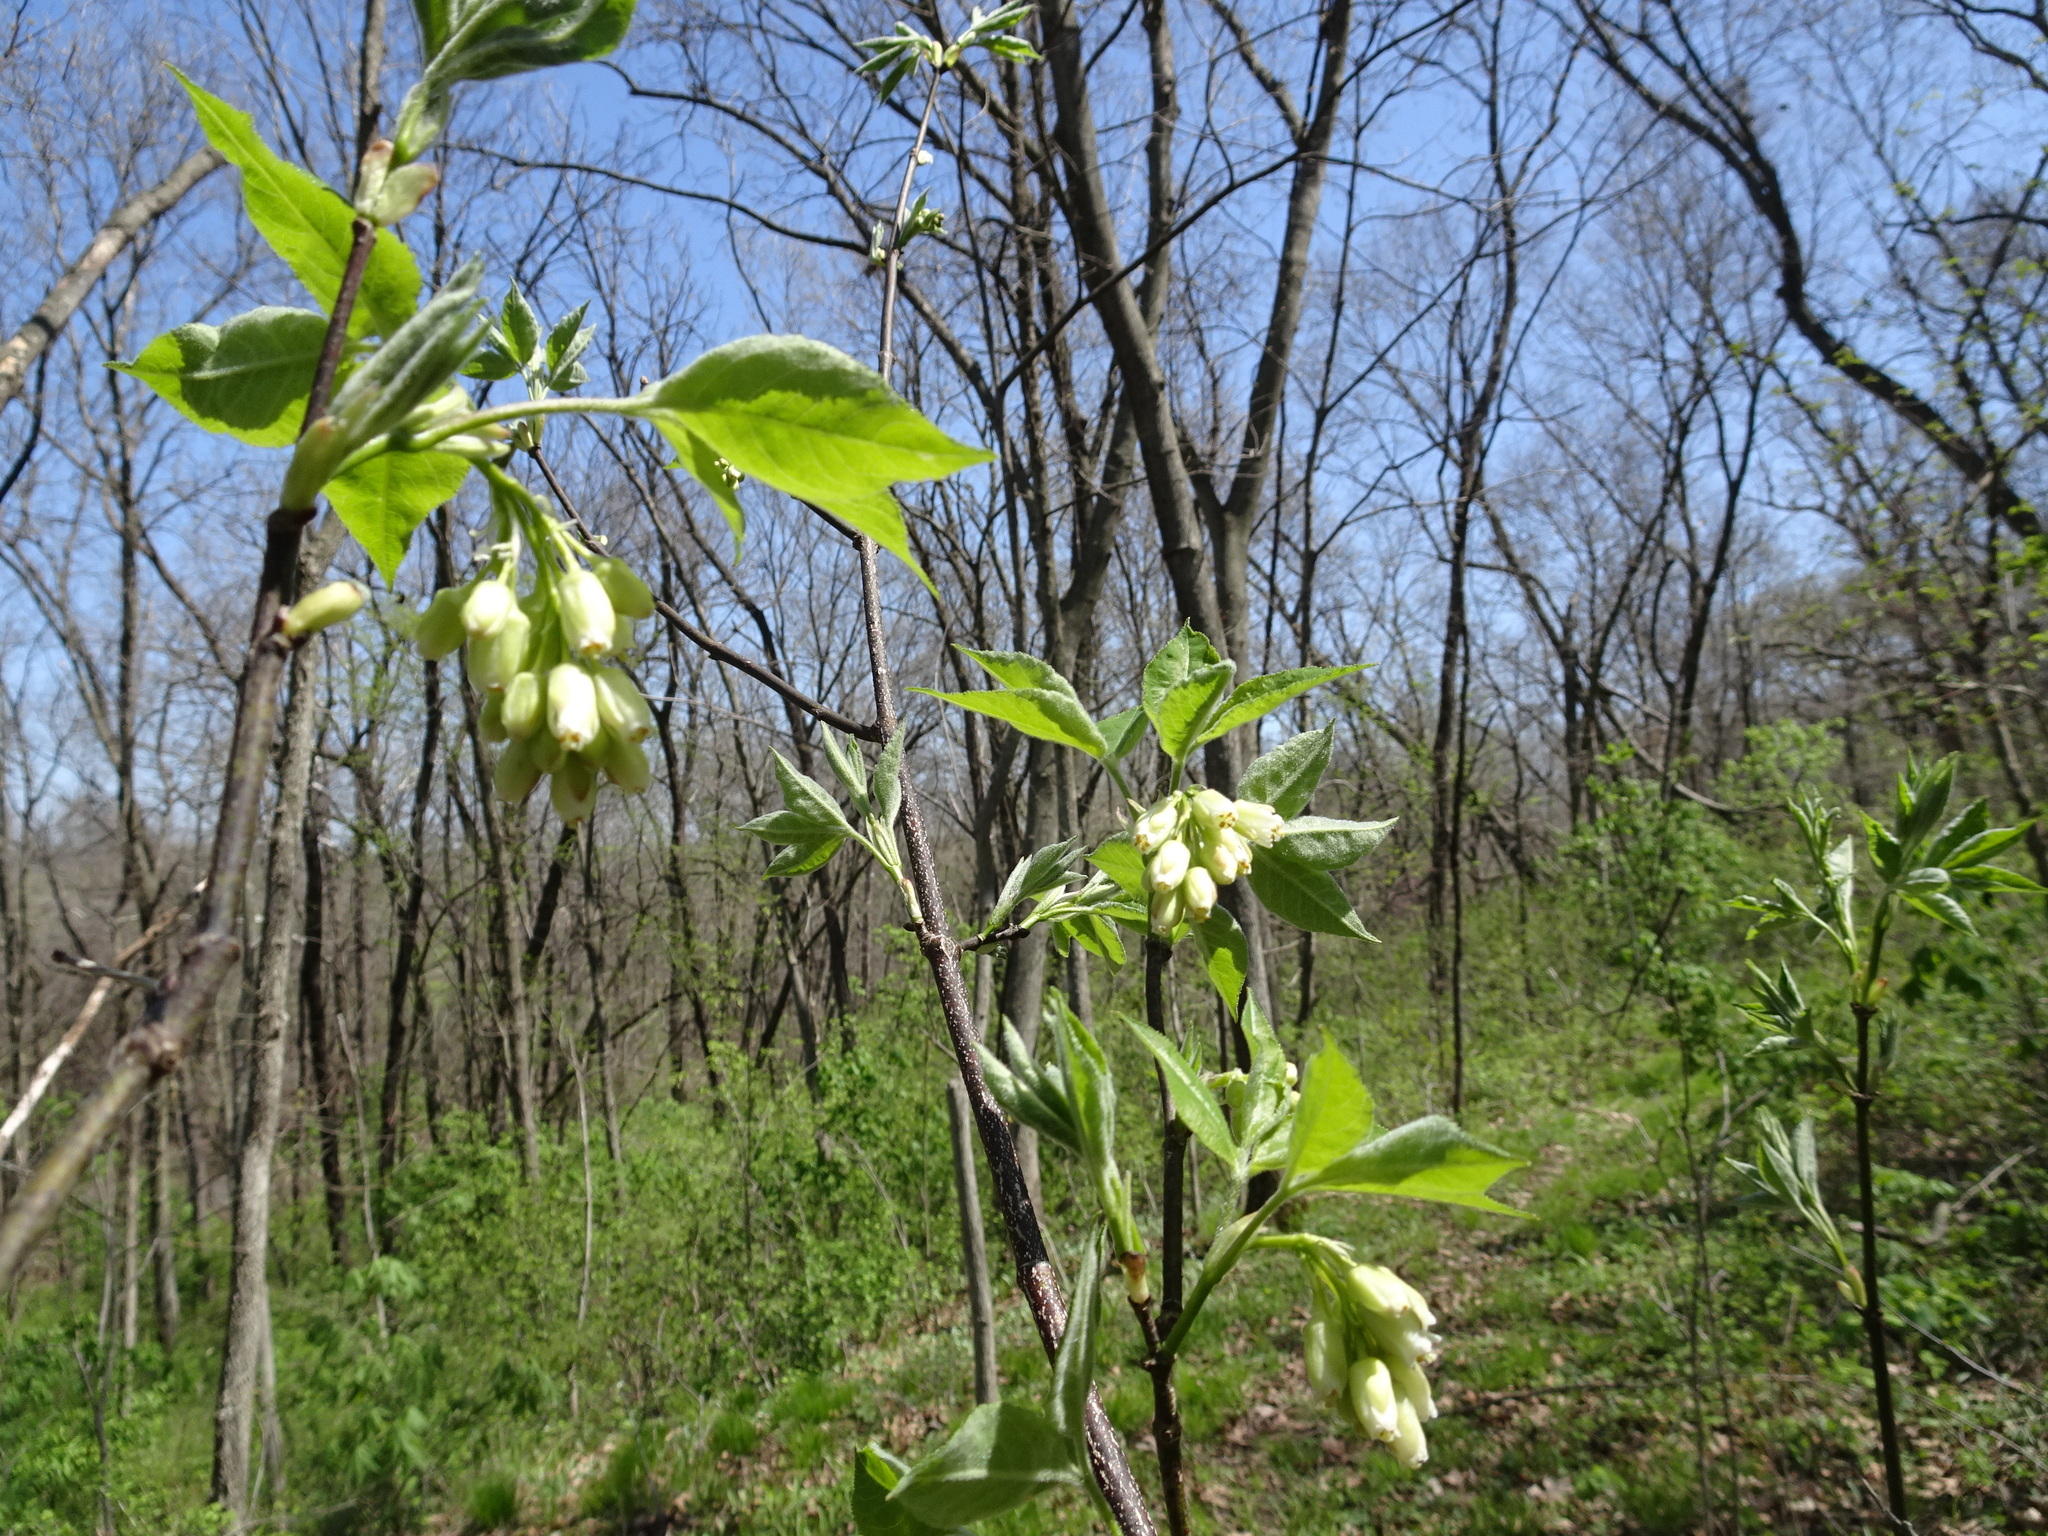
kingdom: Plantae
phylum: Tracheophyta
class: Magnoliopsida
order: Crossosomatales
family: Staphyleaceae
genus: Staphylea
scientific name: Staphylea trifolia
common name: American bladdernut
